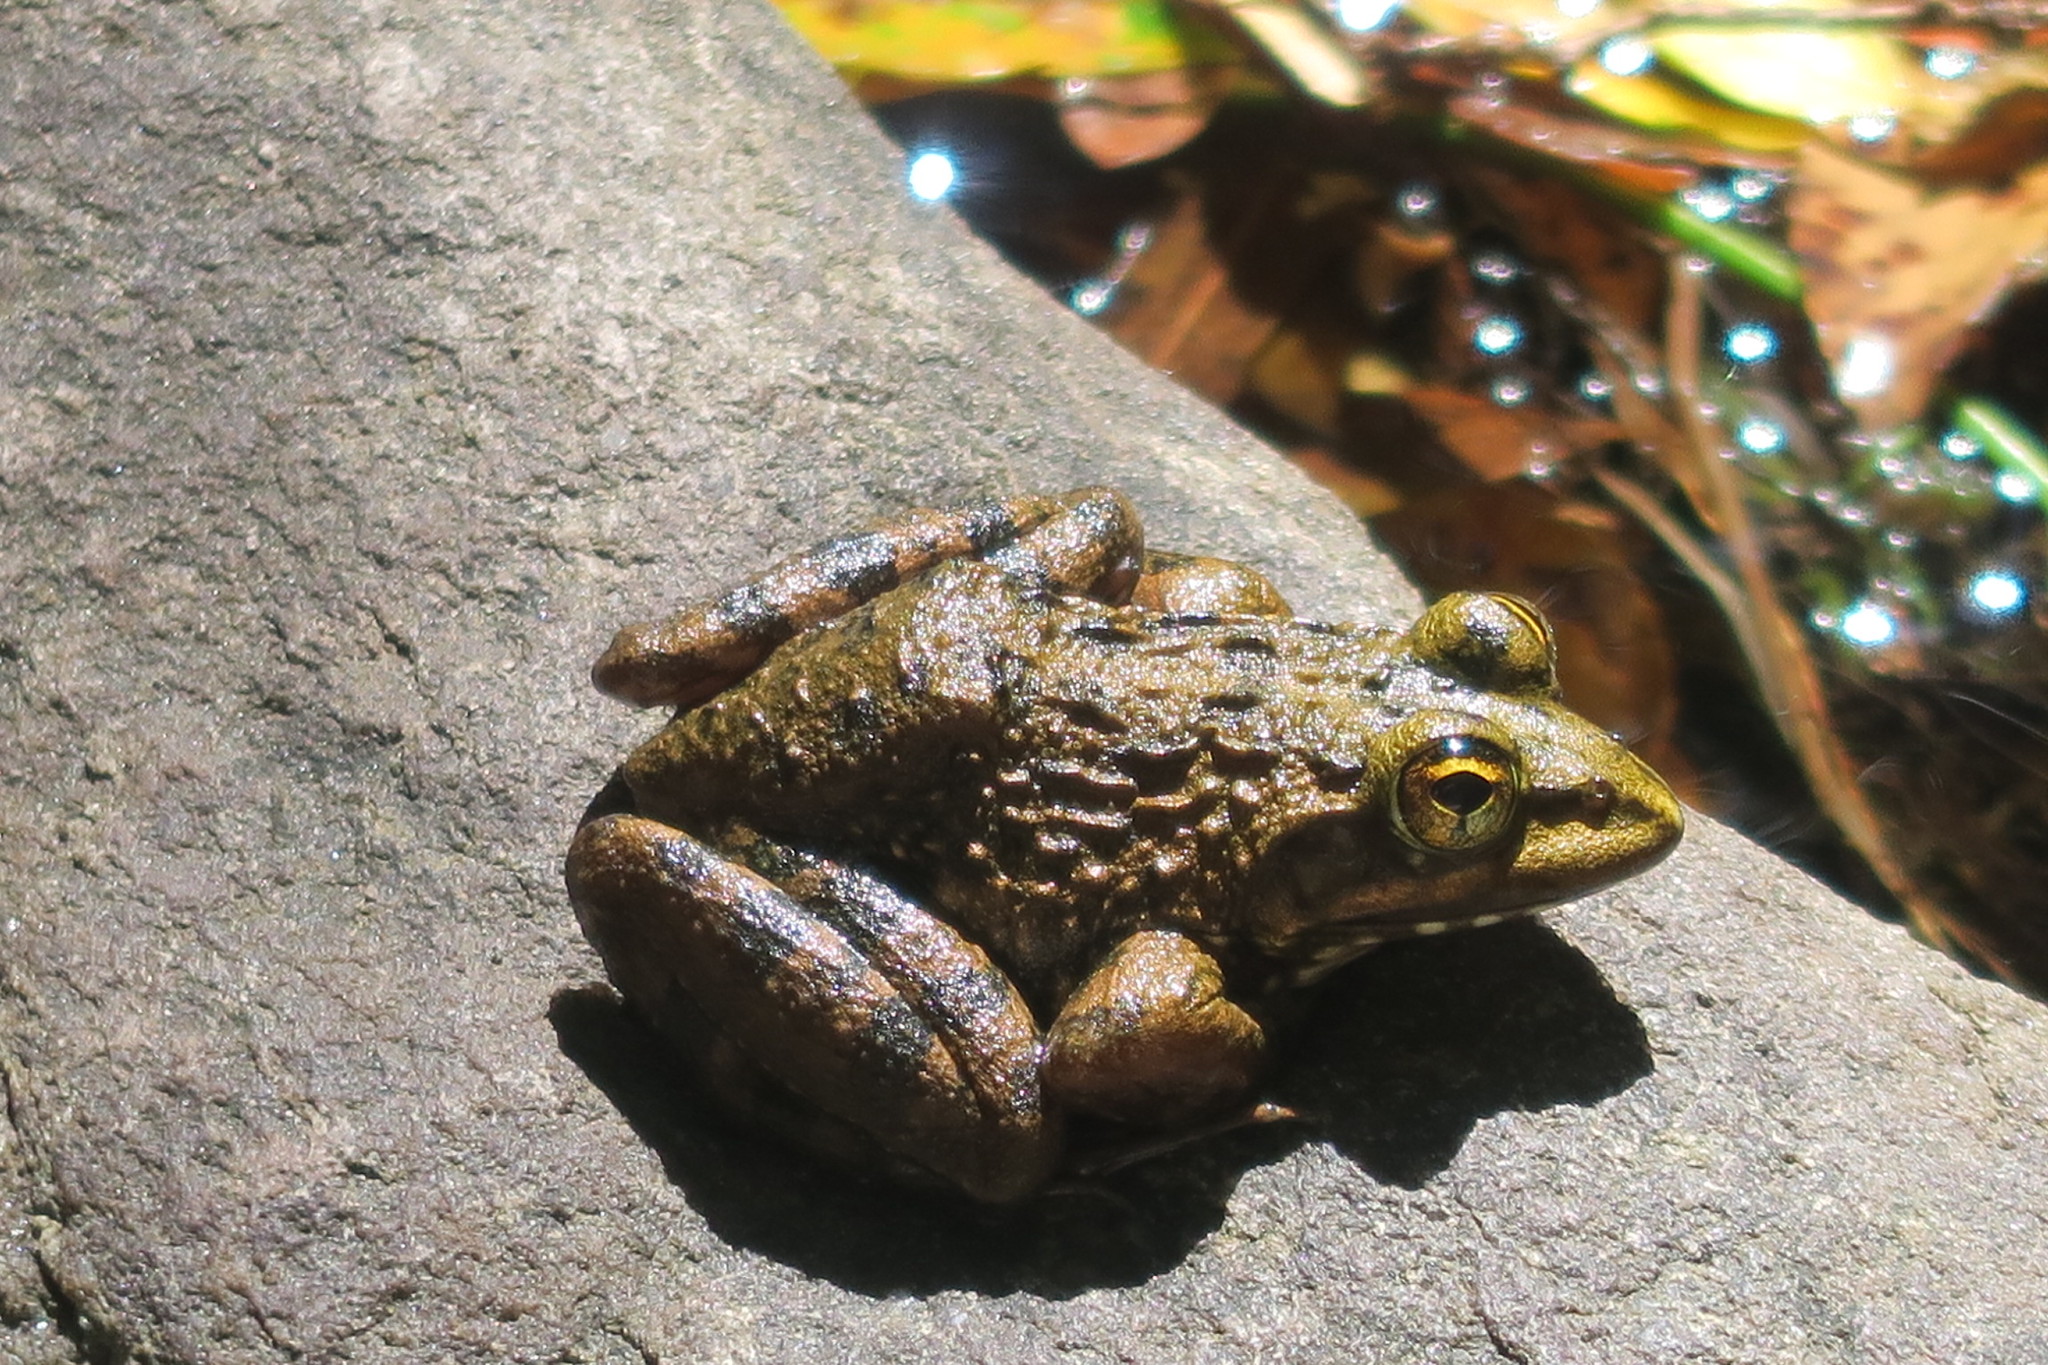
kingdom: Animalia
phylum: Chordata
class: Amphibia
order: Anura
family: Pyxicephalidae
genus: Amietia
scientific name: Amietia fuscigula
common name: Cape rana
